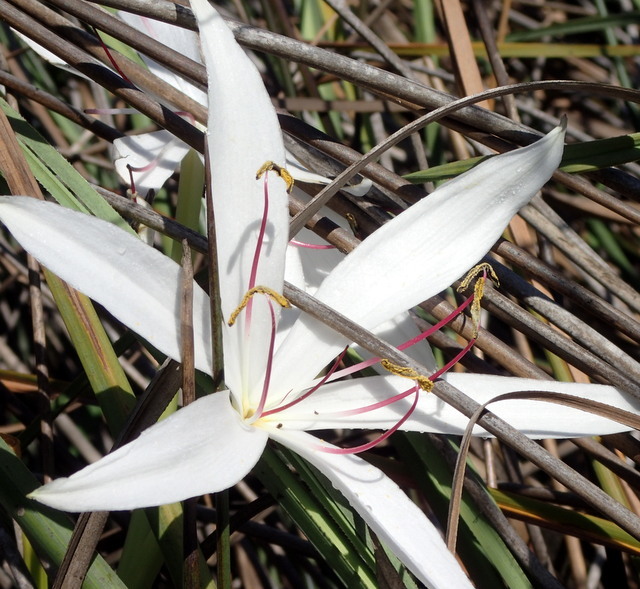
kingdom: Plantae
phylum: Tracheophyta
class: Liliopsida
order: Asparagales
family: Amaryllidaceae
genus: Crinum
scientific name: Crinum americanum
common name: Florida swamp-lily
